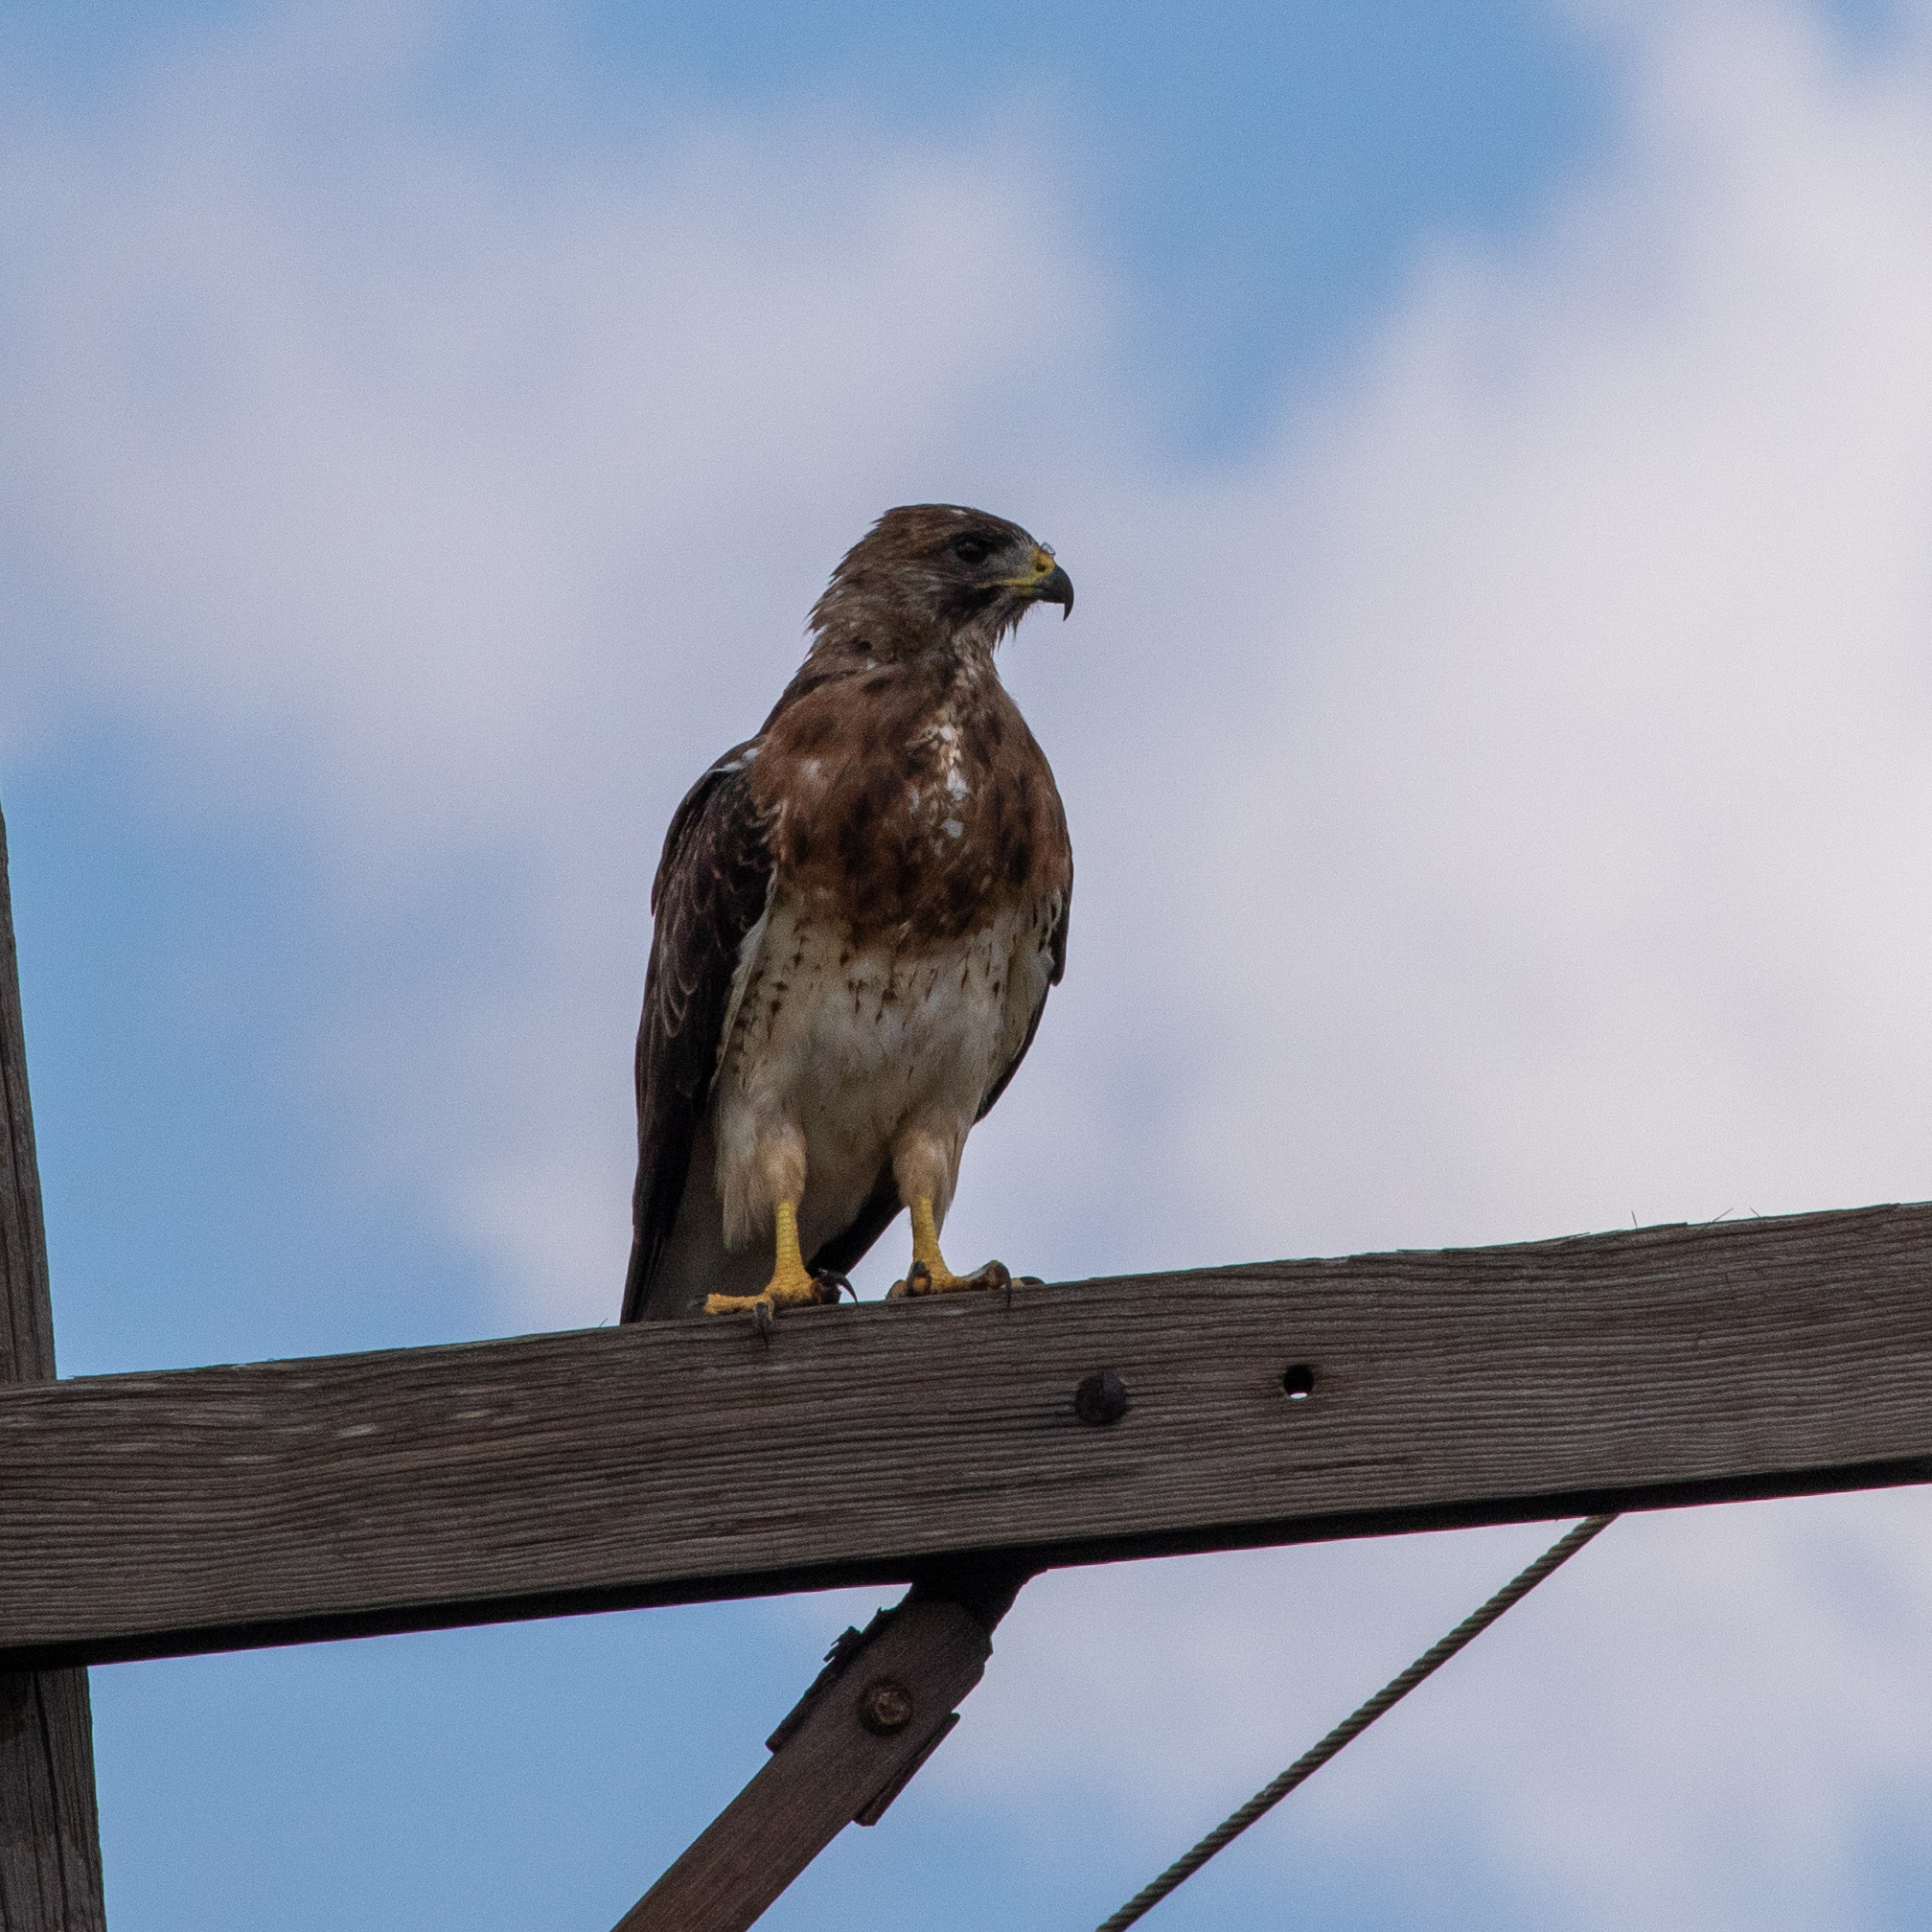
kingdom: Animalia
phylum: Chordata
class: Aves
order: Accipitriformes
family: Accipitridae
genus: Buteo
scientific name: Buteo swainsoni
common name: Swainson's hawk
